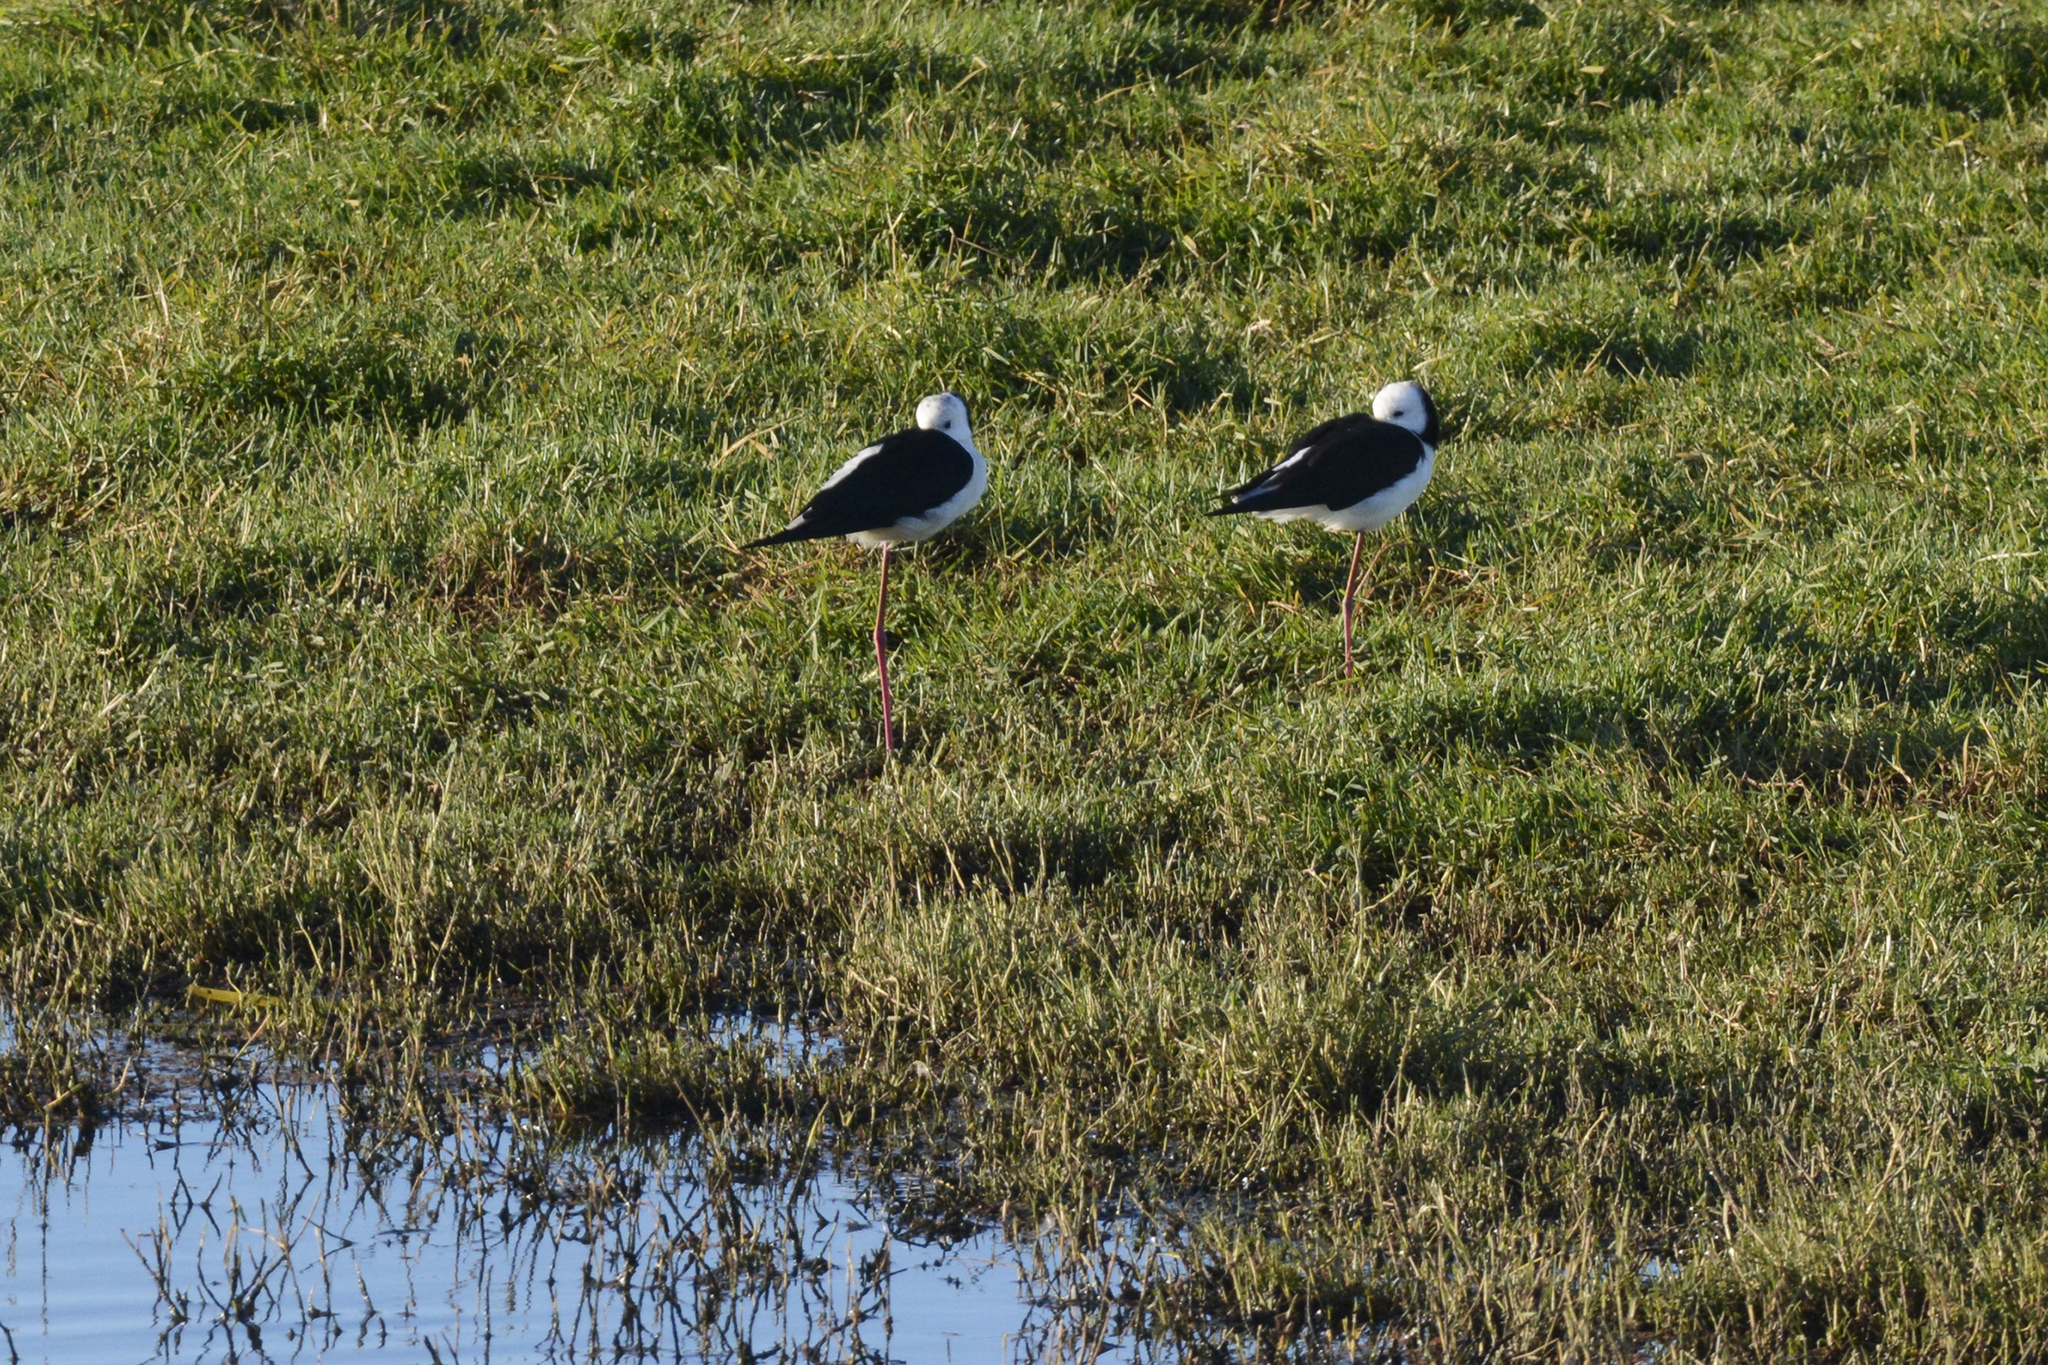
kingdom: Animalia
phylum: Chordata
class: Aves
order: Charadriiformes
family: Recurvirostridae
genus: Himantopus
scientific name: Himantopus leucocephalus
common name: White-headed stilt
